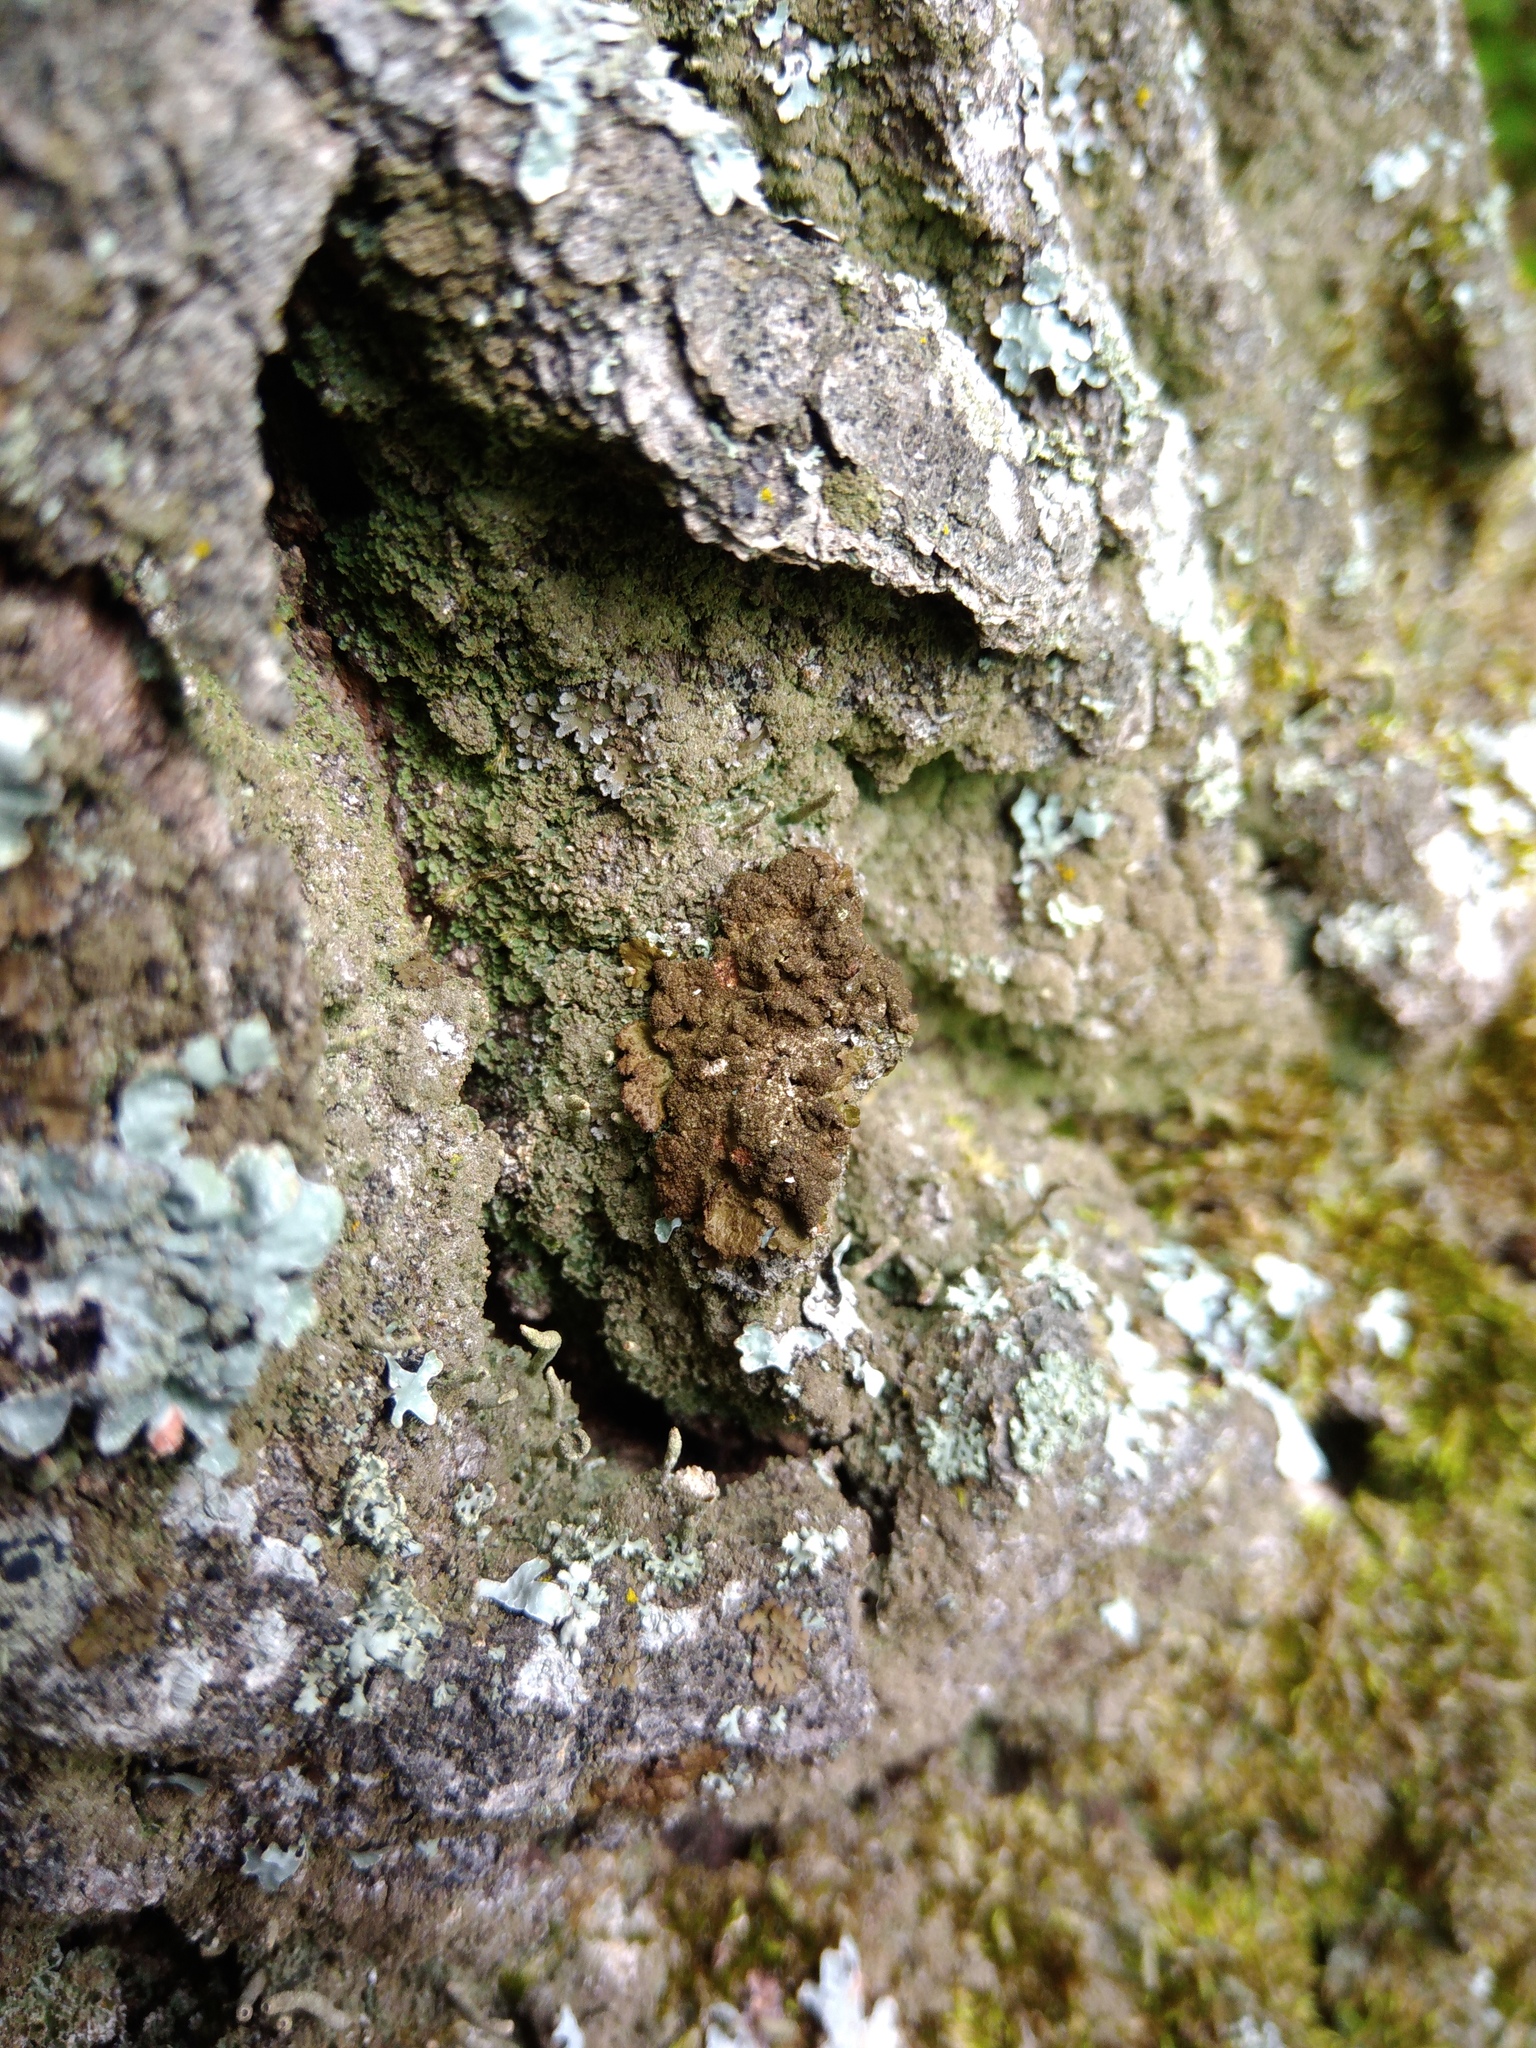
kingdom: Fungi
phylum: Ascomycota
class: Lecanoromycetes
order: Lecanorales
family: Parmeliaceae
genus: Melanelixia
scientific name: Melanelixia subaurifera
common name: Abraded camouflage lichen
